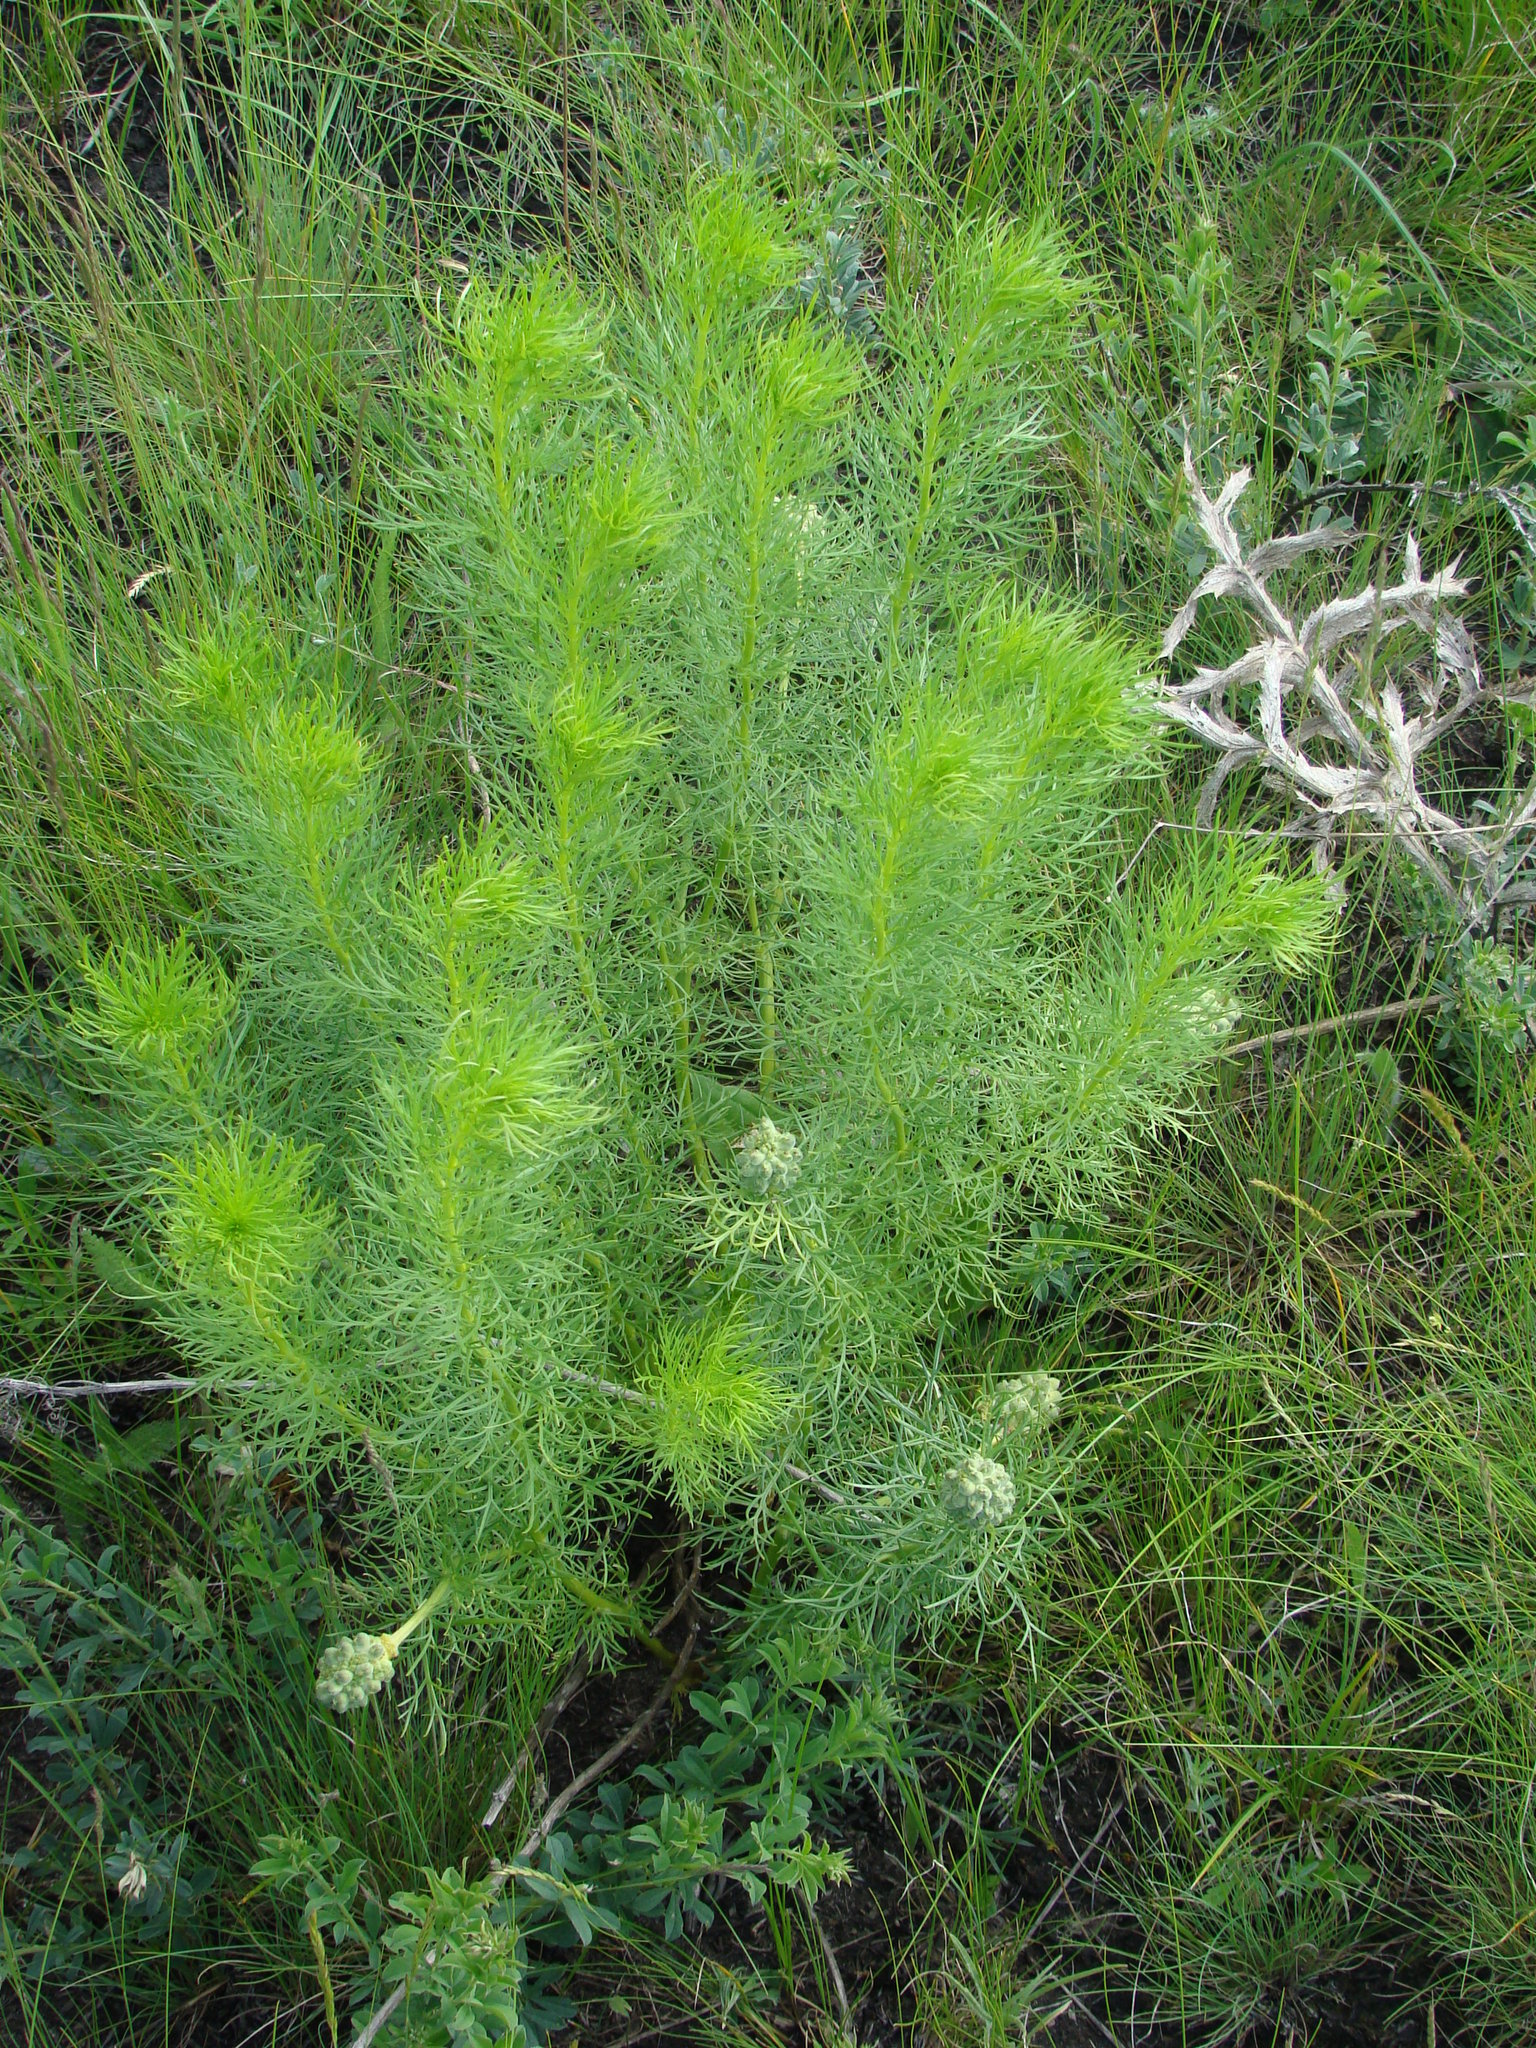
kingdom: Plantae
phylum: Tracheophyta
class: Magnoliopsida
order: Ranunculales
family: Ranunculaceae
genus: Adonis
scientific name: Adonis vernalis
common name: Yellow pheasants-eye
